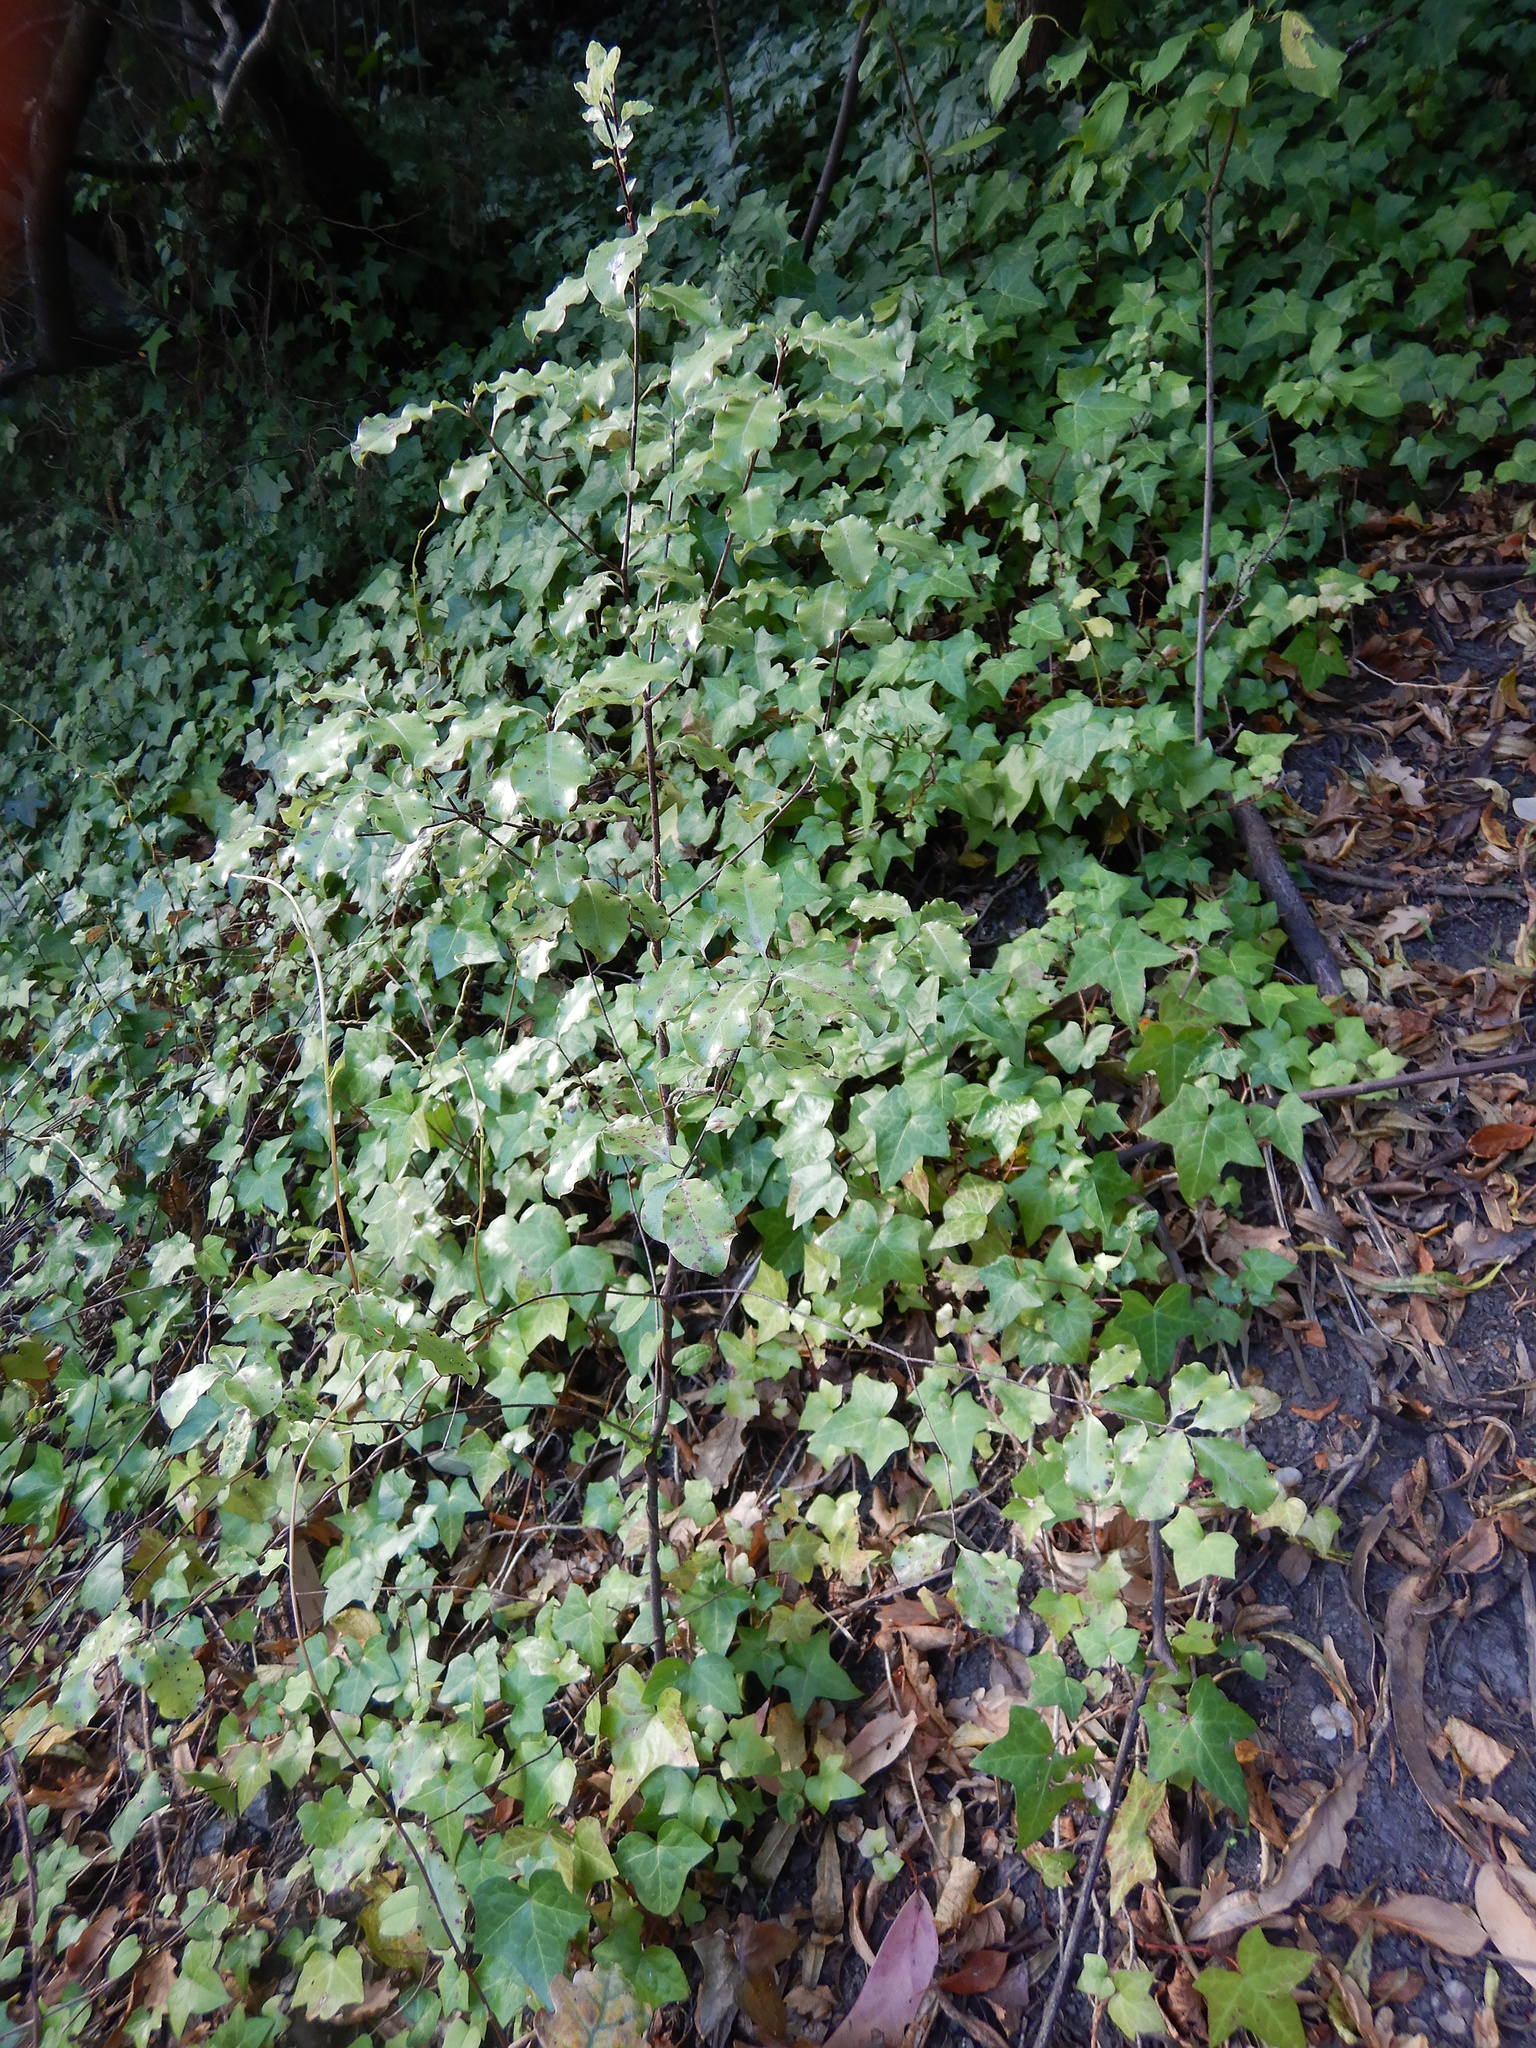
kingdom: Plantae
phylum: Tracheophyta
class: Magnoliopsida
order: Apiales
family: Pittosporaceae
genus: Pittosporum
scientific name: Pittosporum tenuifolium
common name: Kohuhu
